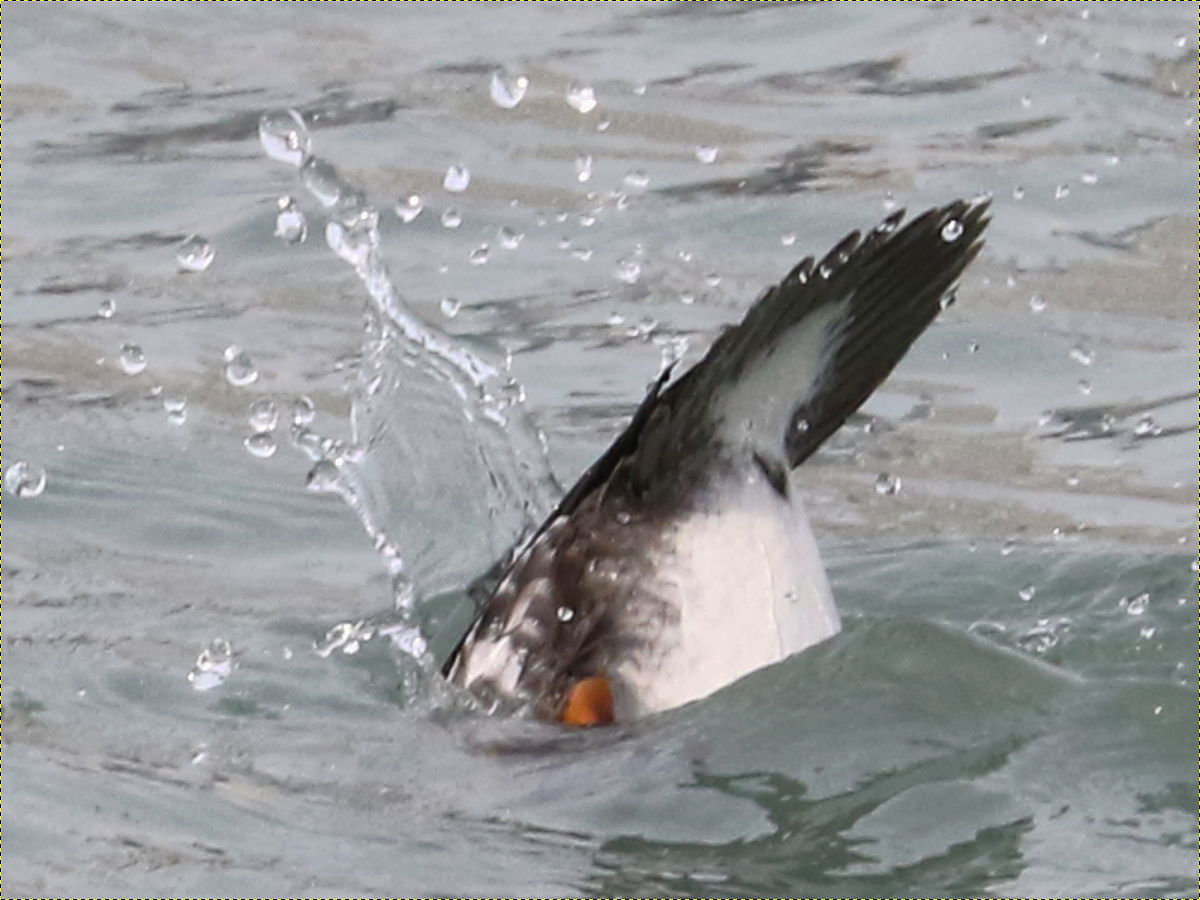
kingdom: Animalia
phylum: Chordata
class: Aves
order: Anseriformes
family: Anatidae
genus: Bucephala
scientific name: Bucephala clangula
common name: Common goldeneye
